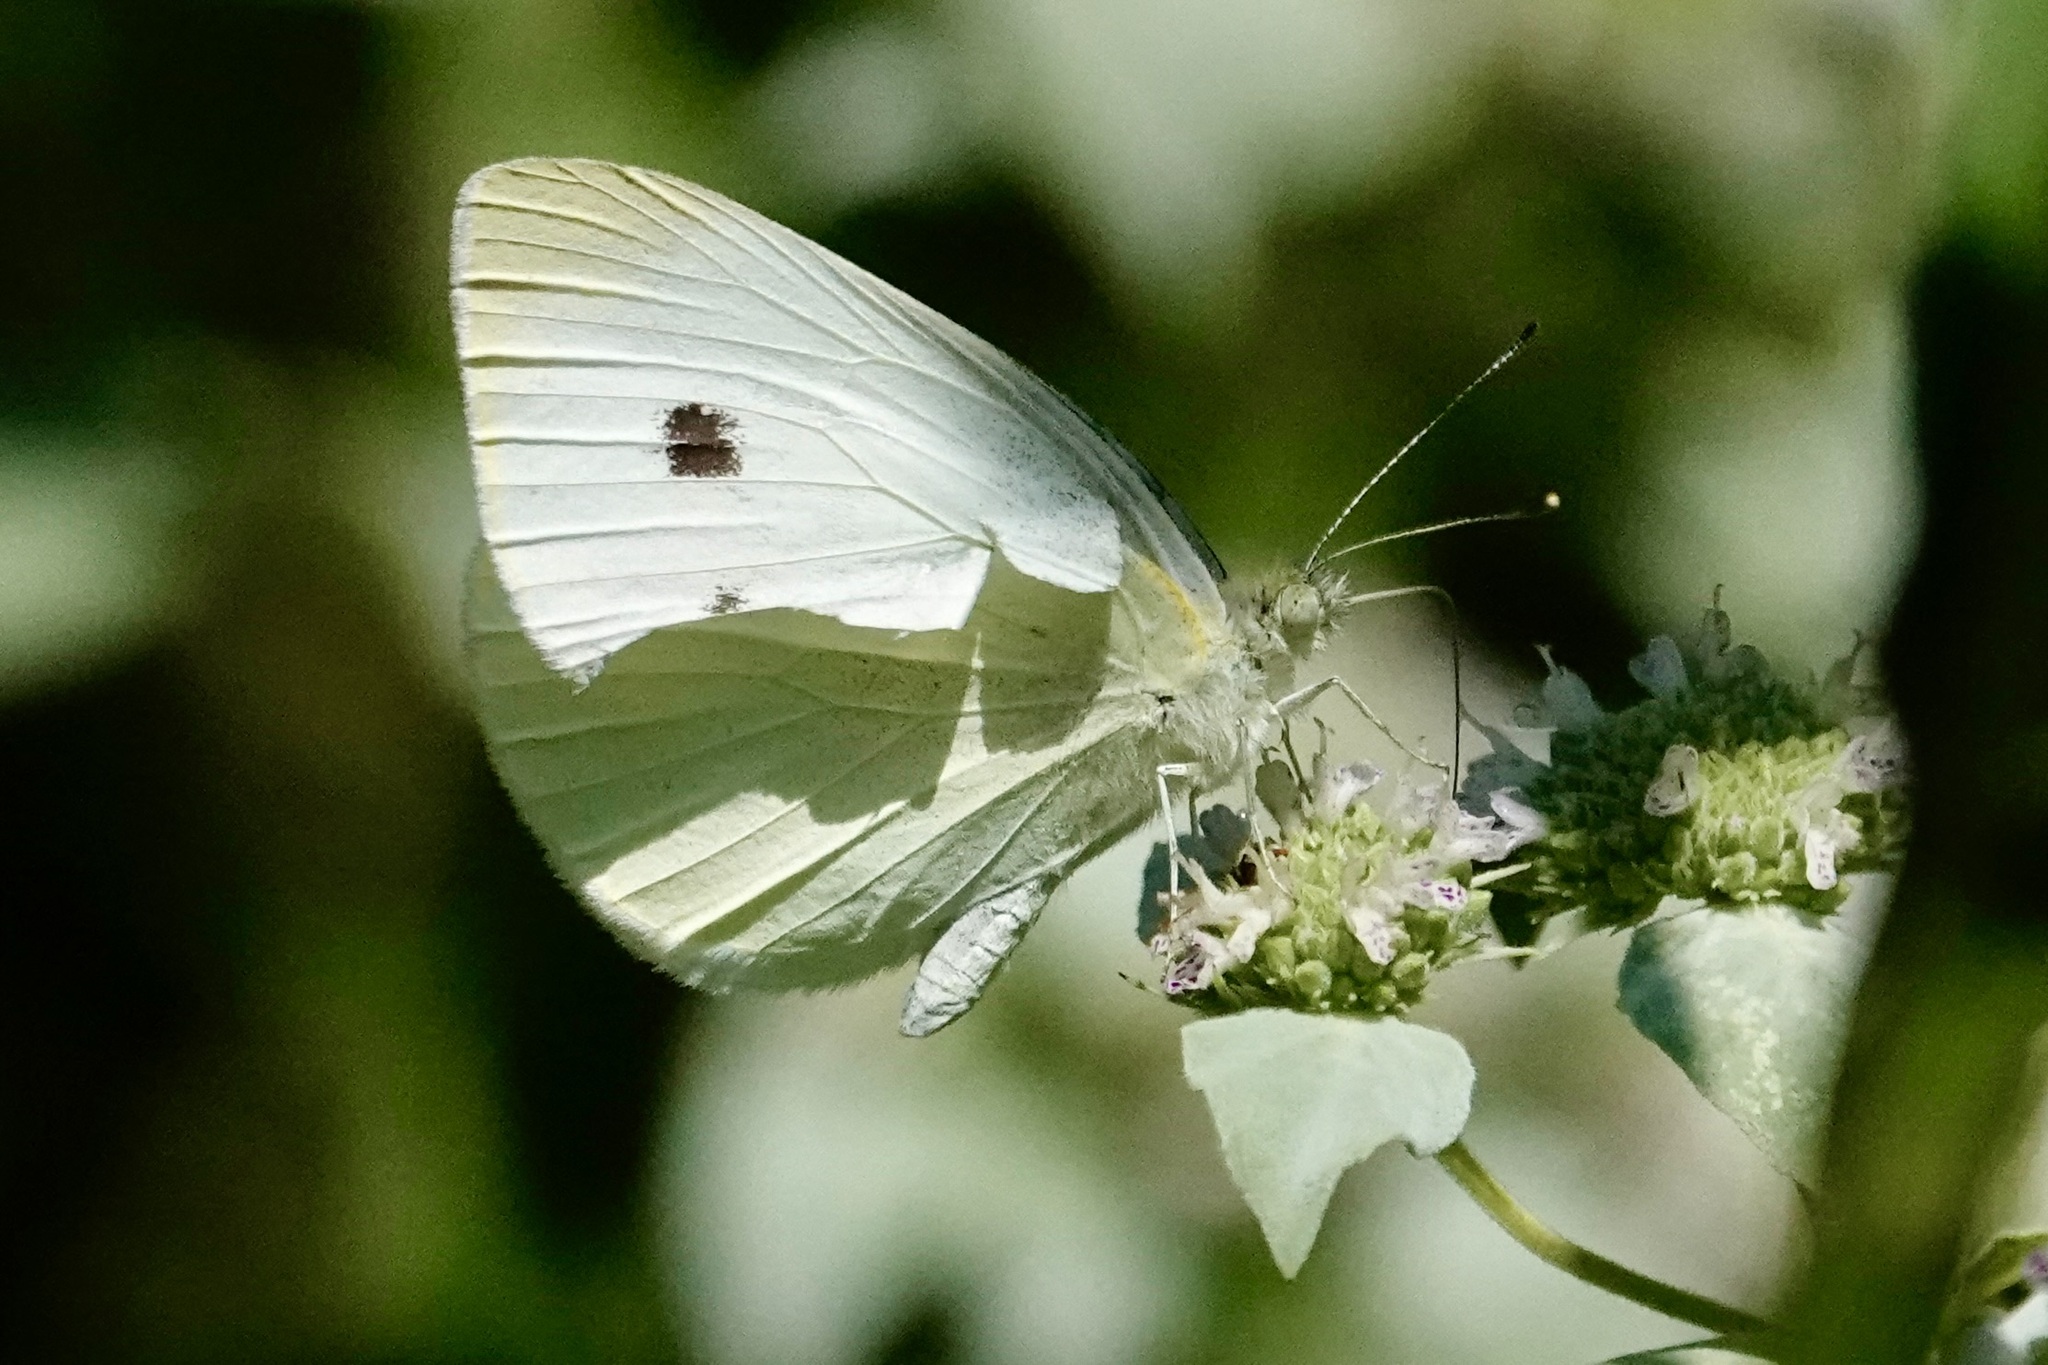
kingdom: Animalia
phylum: Arthropoda
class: Insecta
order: Lepidoptera
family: Pieridae
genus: Pieris
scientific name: Pieris rapae
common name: Small white
